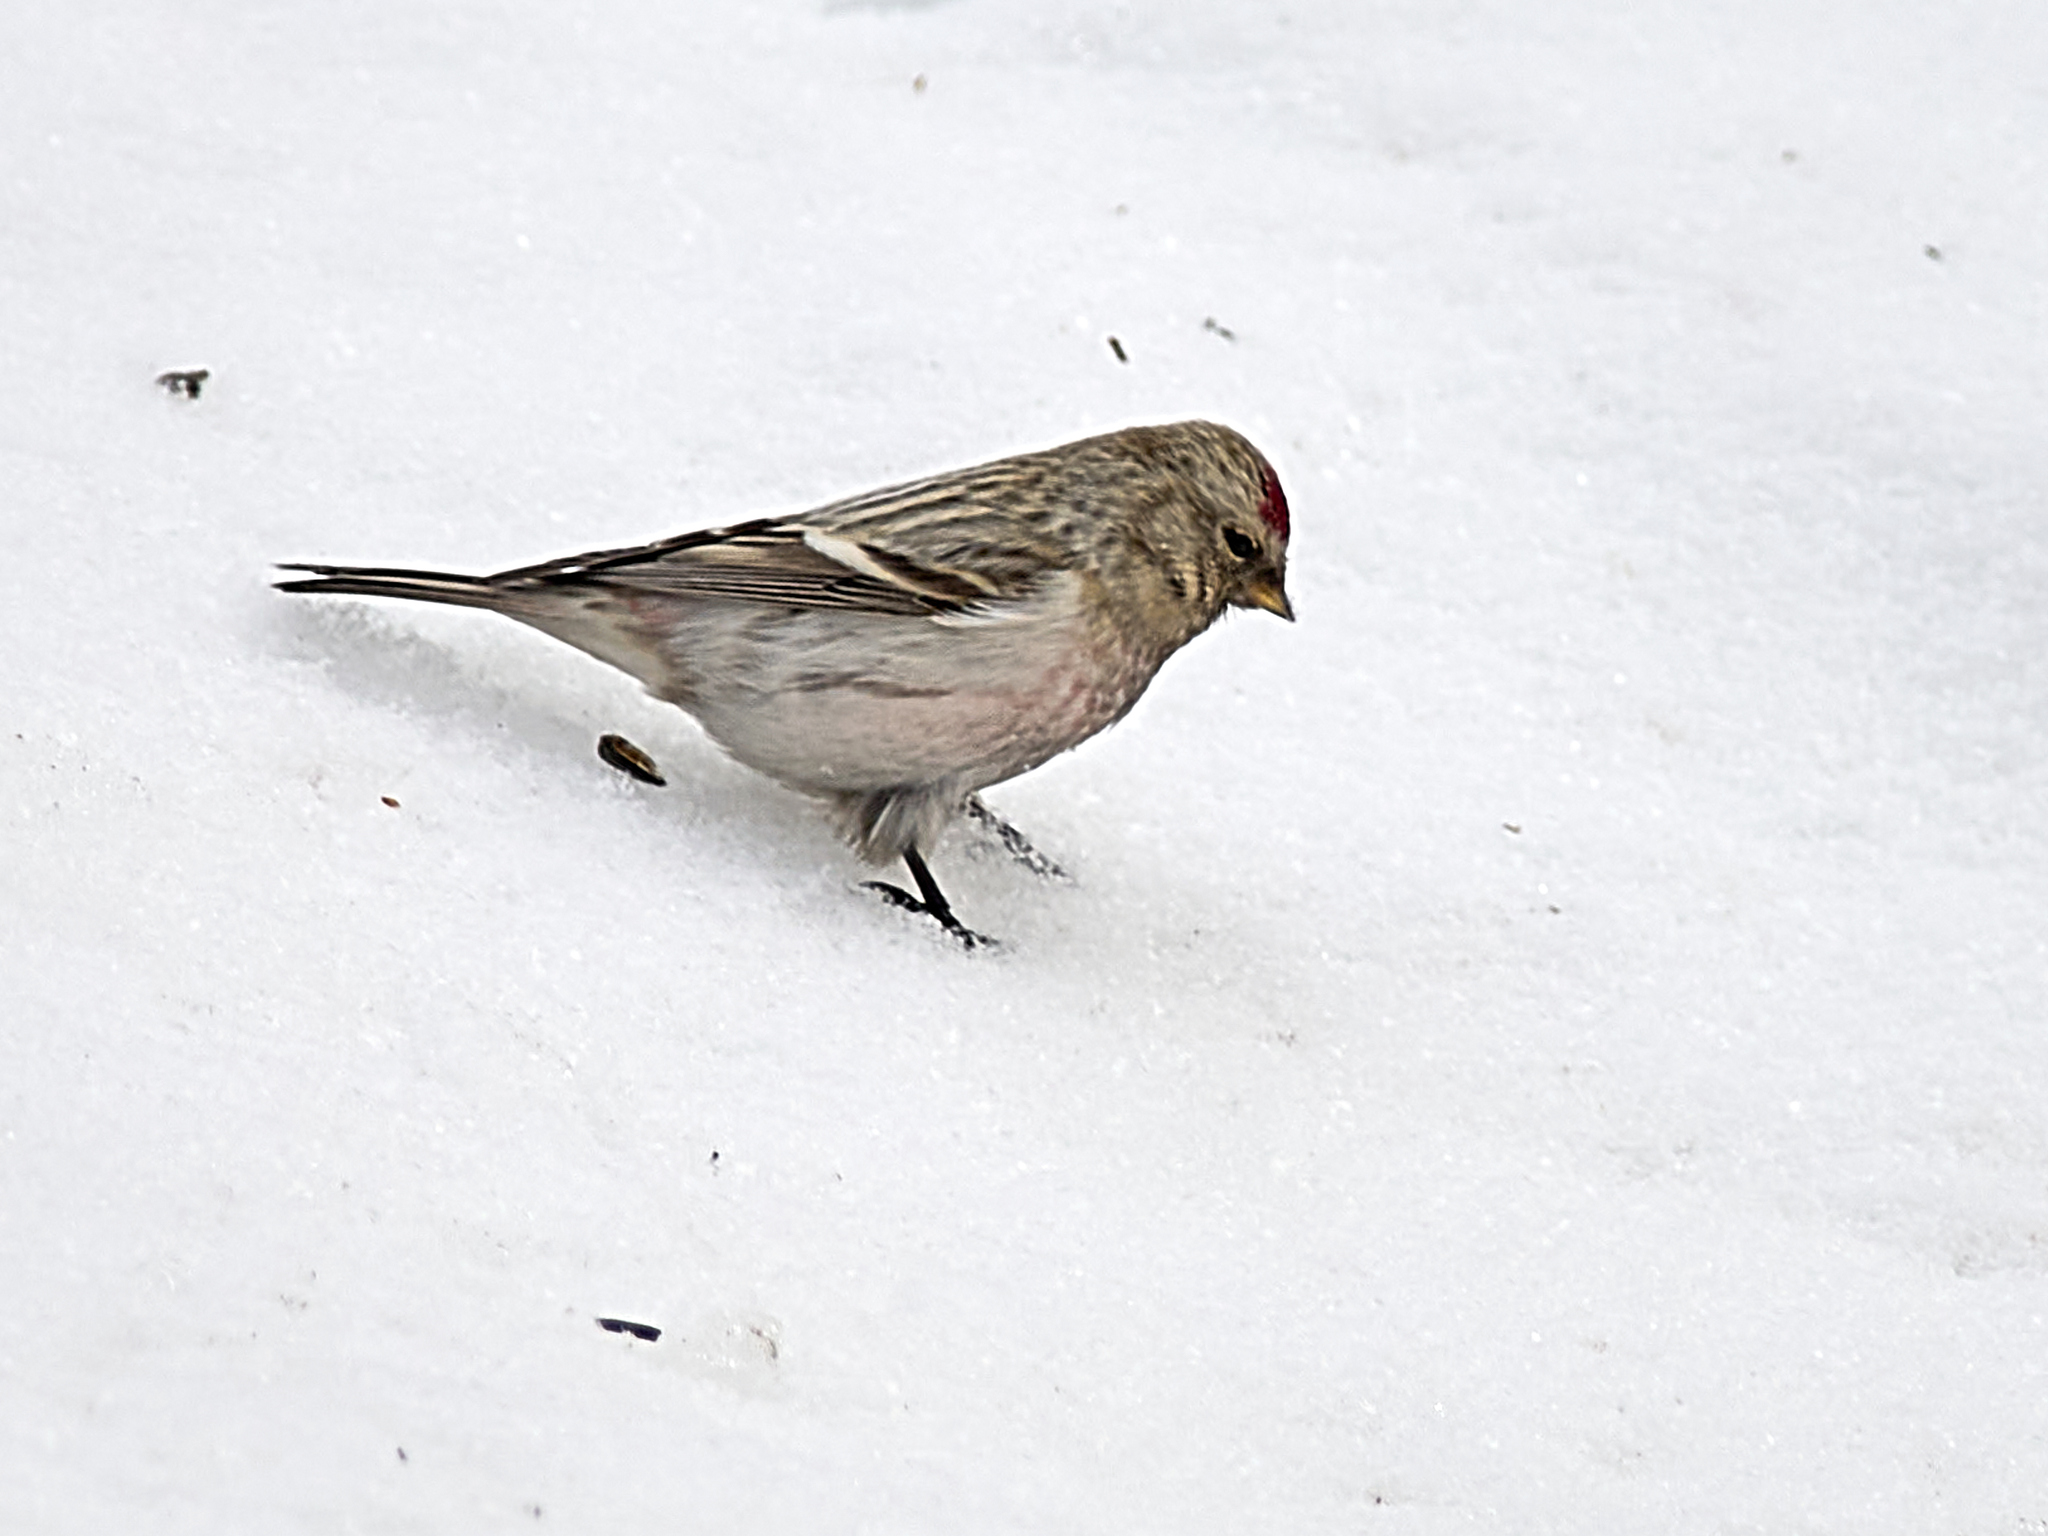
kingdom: Animalia
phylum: Chordata
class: Aves
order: Passeriformes
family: Fringillidae
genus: Acanthis
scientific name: Acanthis hornemanni
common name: Arctic redpoll
